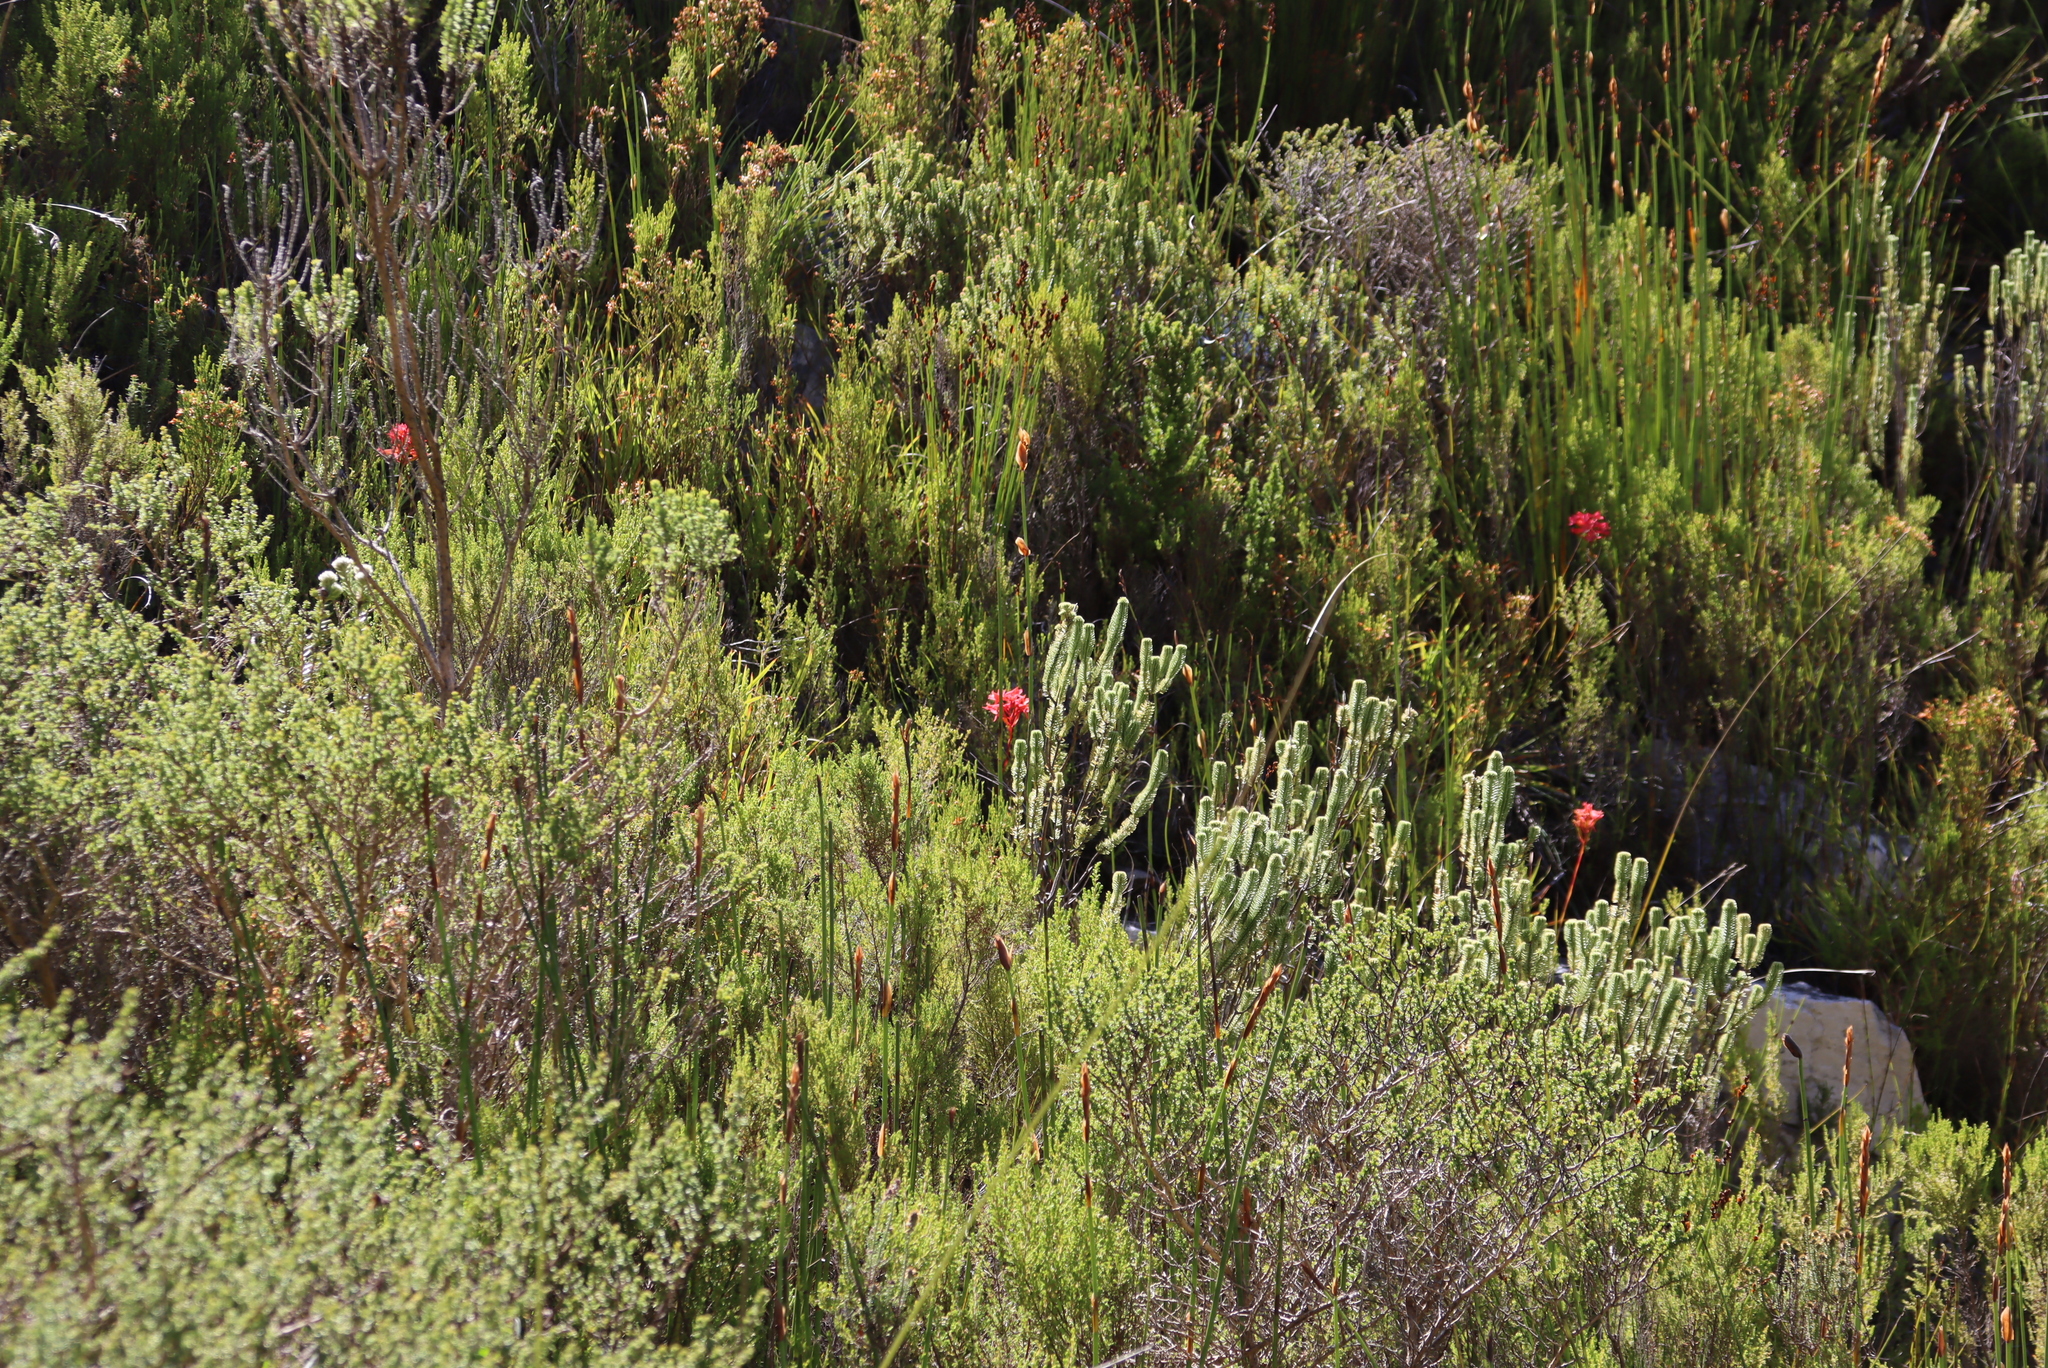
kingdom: Plantae
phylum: Tracheophyta
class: Liliopsida
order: Asparagales
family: Orchidaceae
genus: Disa
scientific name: Disa ferruginea
